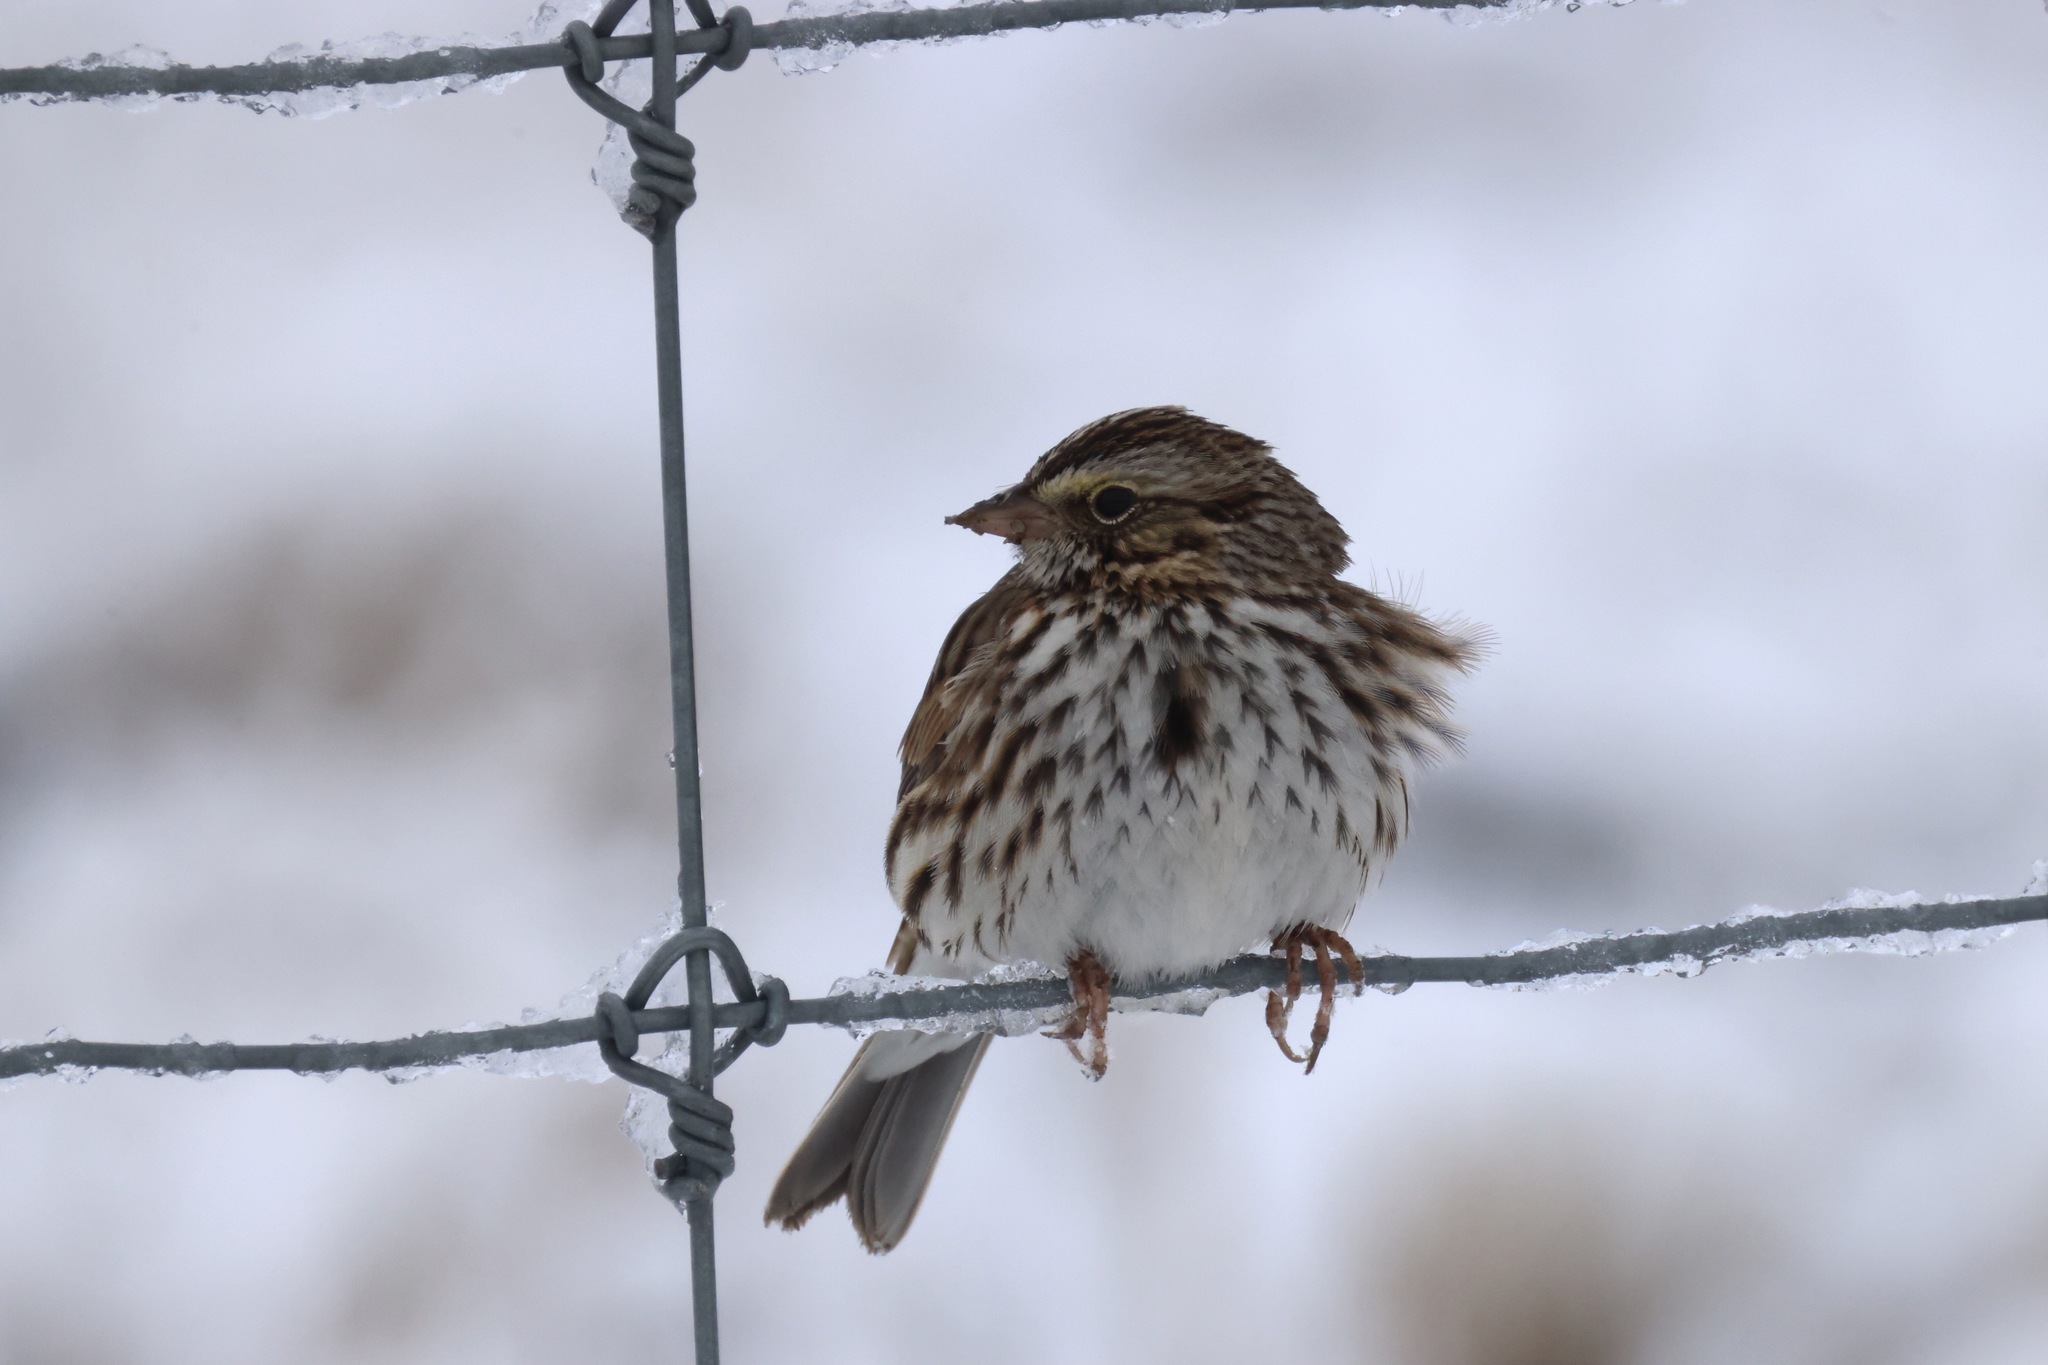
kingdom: Animalia
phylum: Chordata
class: Aves
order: Passeriformes
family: Passerellidae
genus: Passerculus
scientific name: Passerculus sandwichensis
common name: Savannah sparrow
